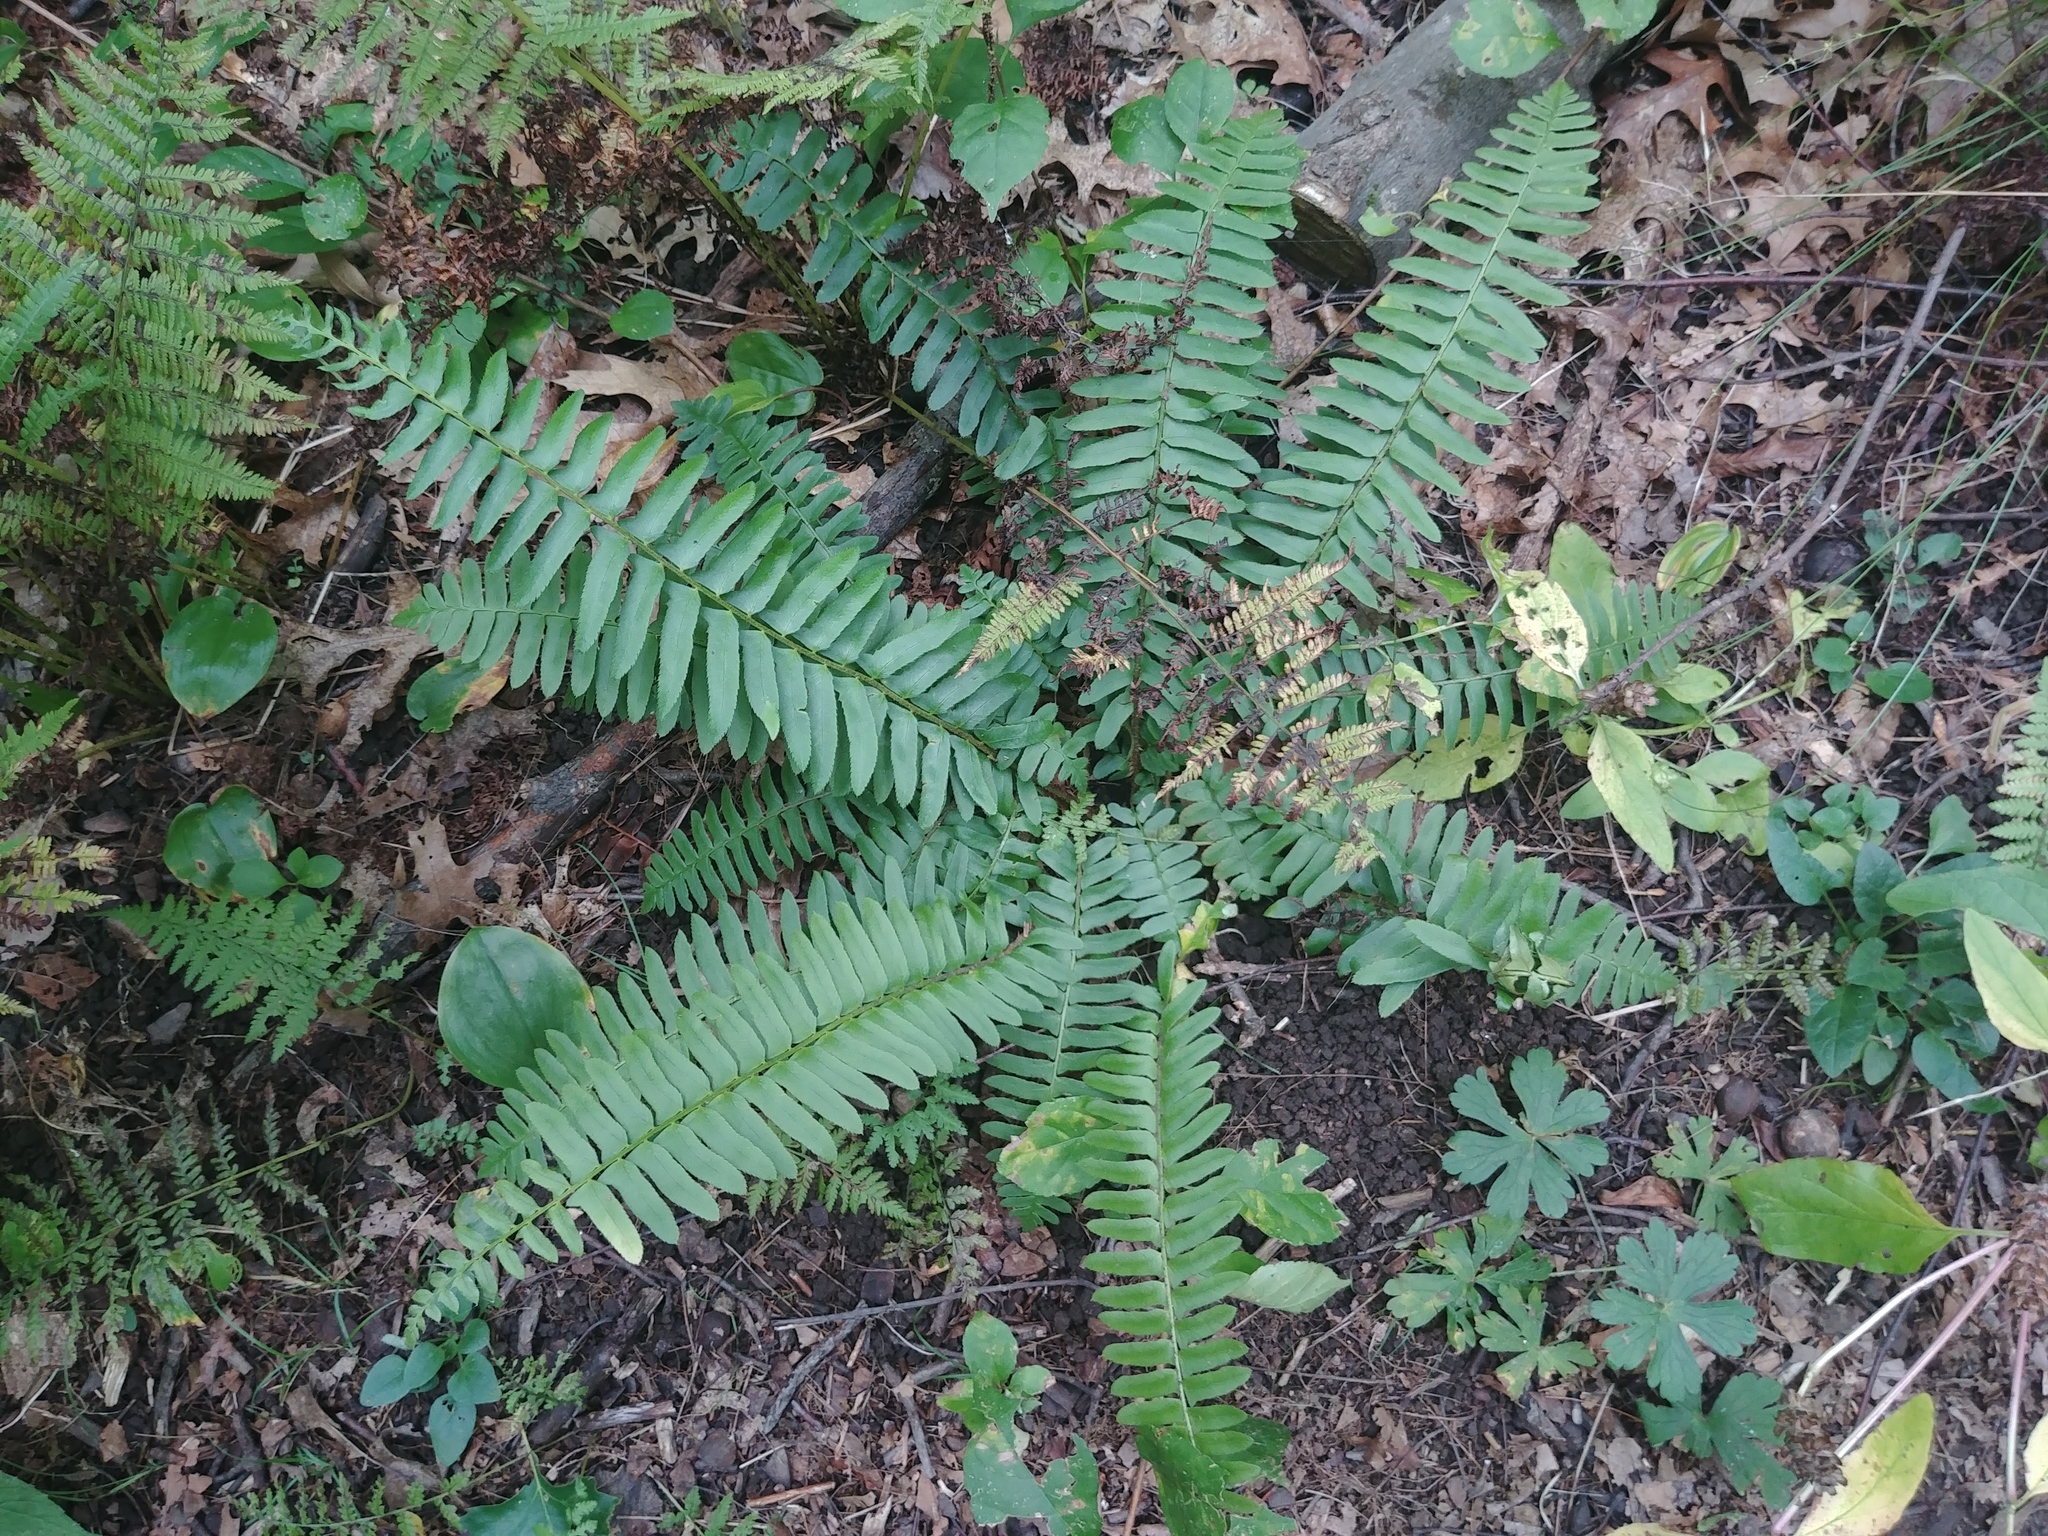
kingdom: Plantae
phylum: Tracheophyta
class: Polypodiopsida
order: Polypodiales
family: Dryopteridaceae
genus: Polystichum
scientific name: Polystichum acrostichoides
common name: Christmas fern
